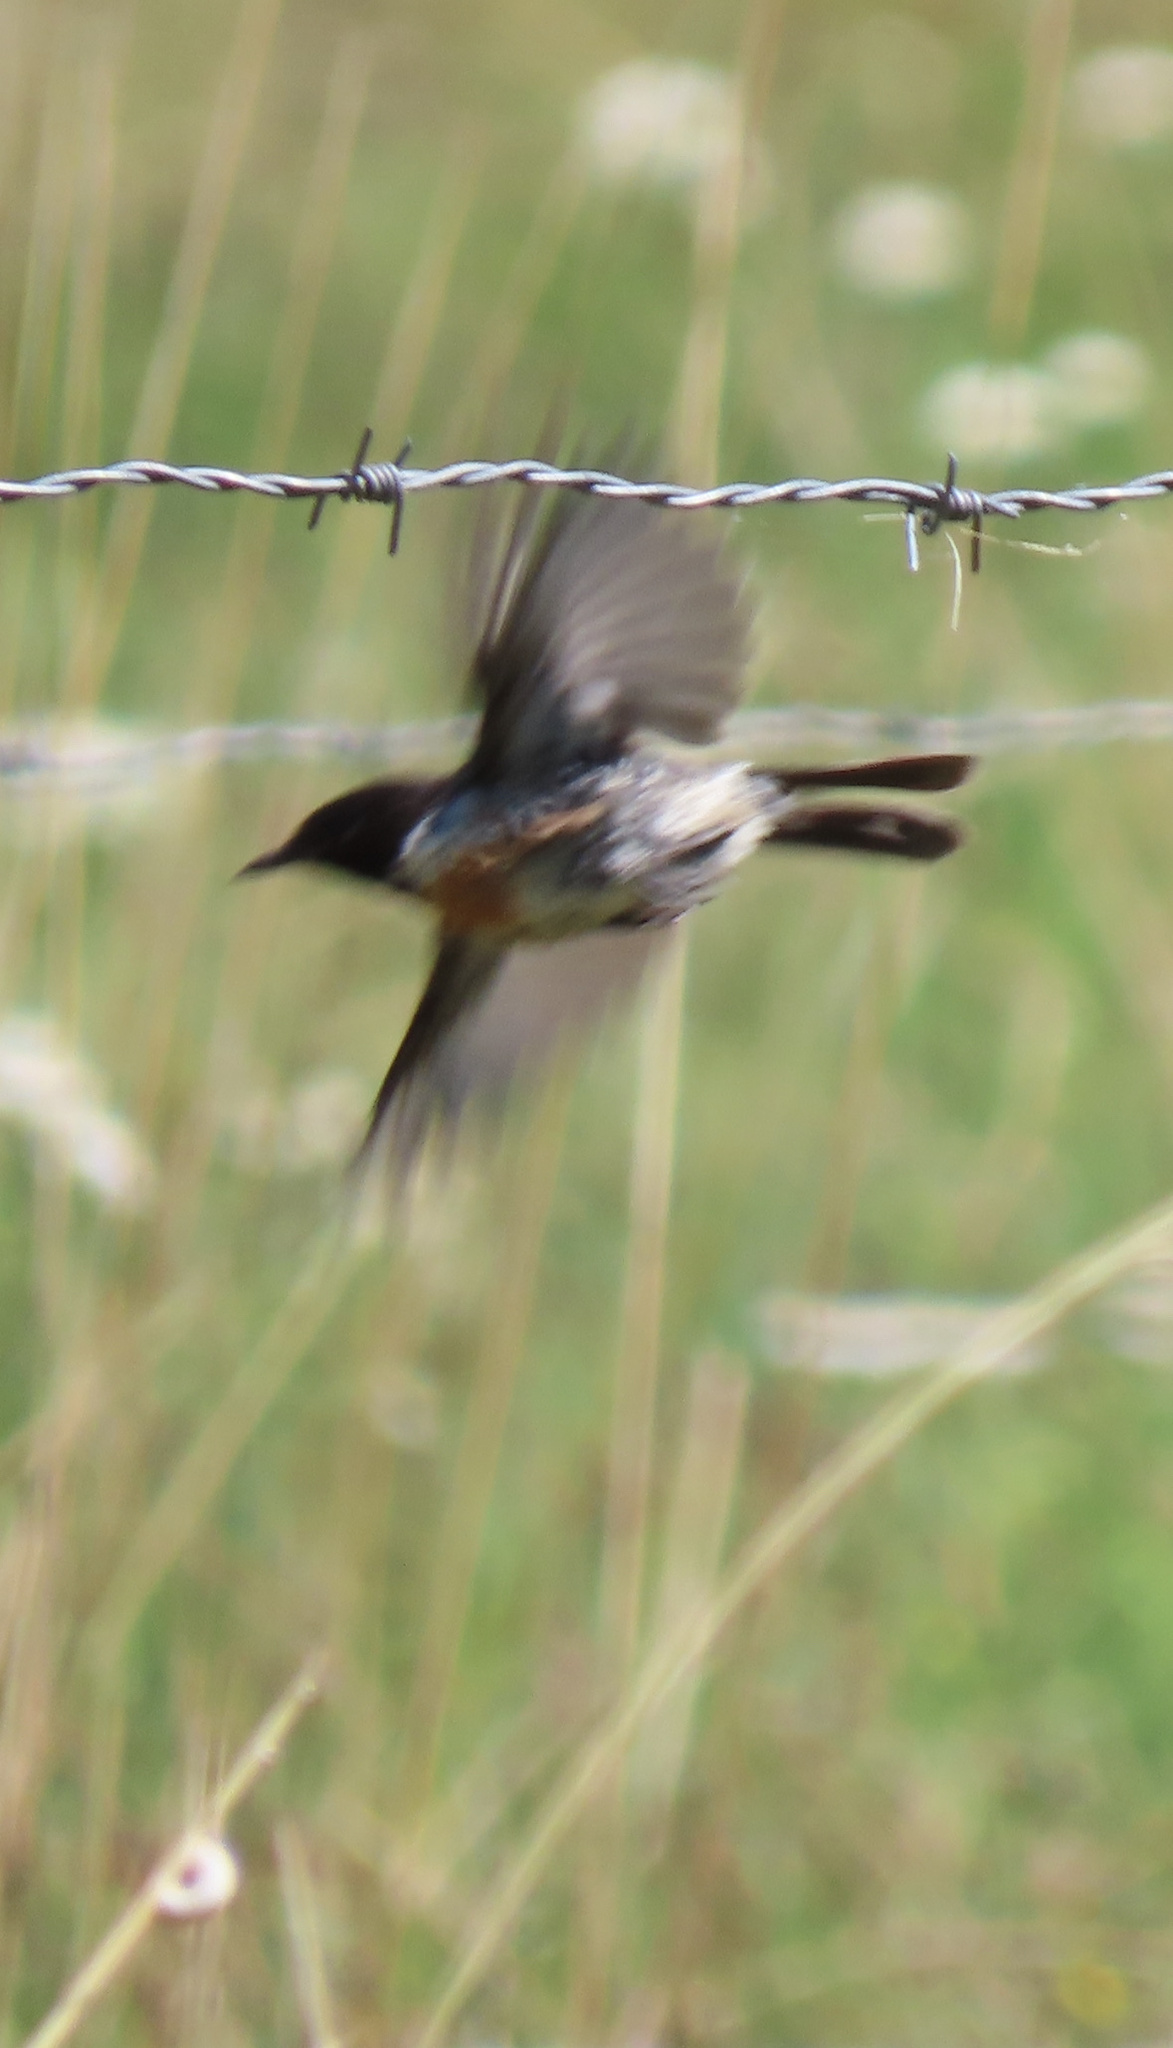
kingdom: Animalia
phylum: Chordata
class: Aves
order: Passeriformes
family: Muscicapidae
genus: Saxicola
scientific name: Saxicola rubicola
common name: European stonechat
